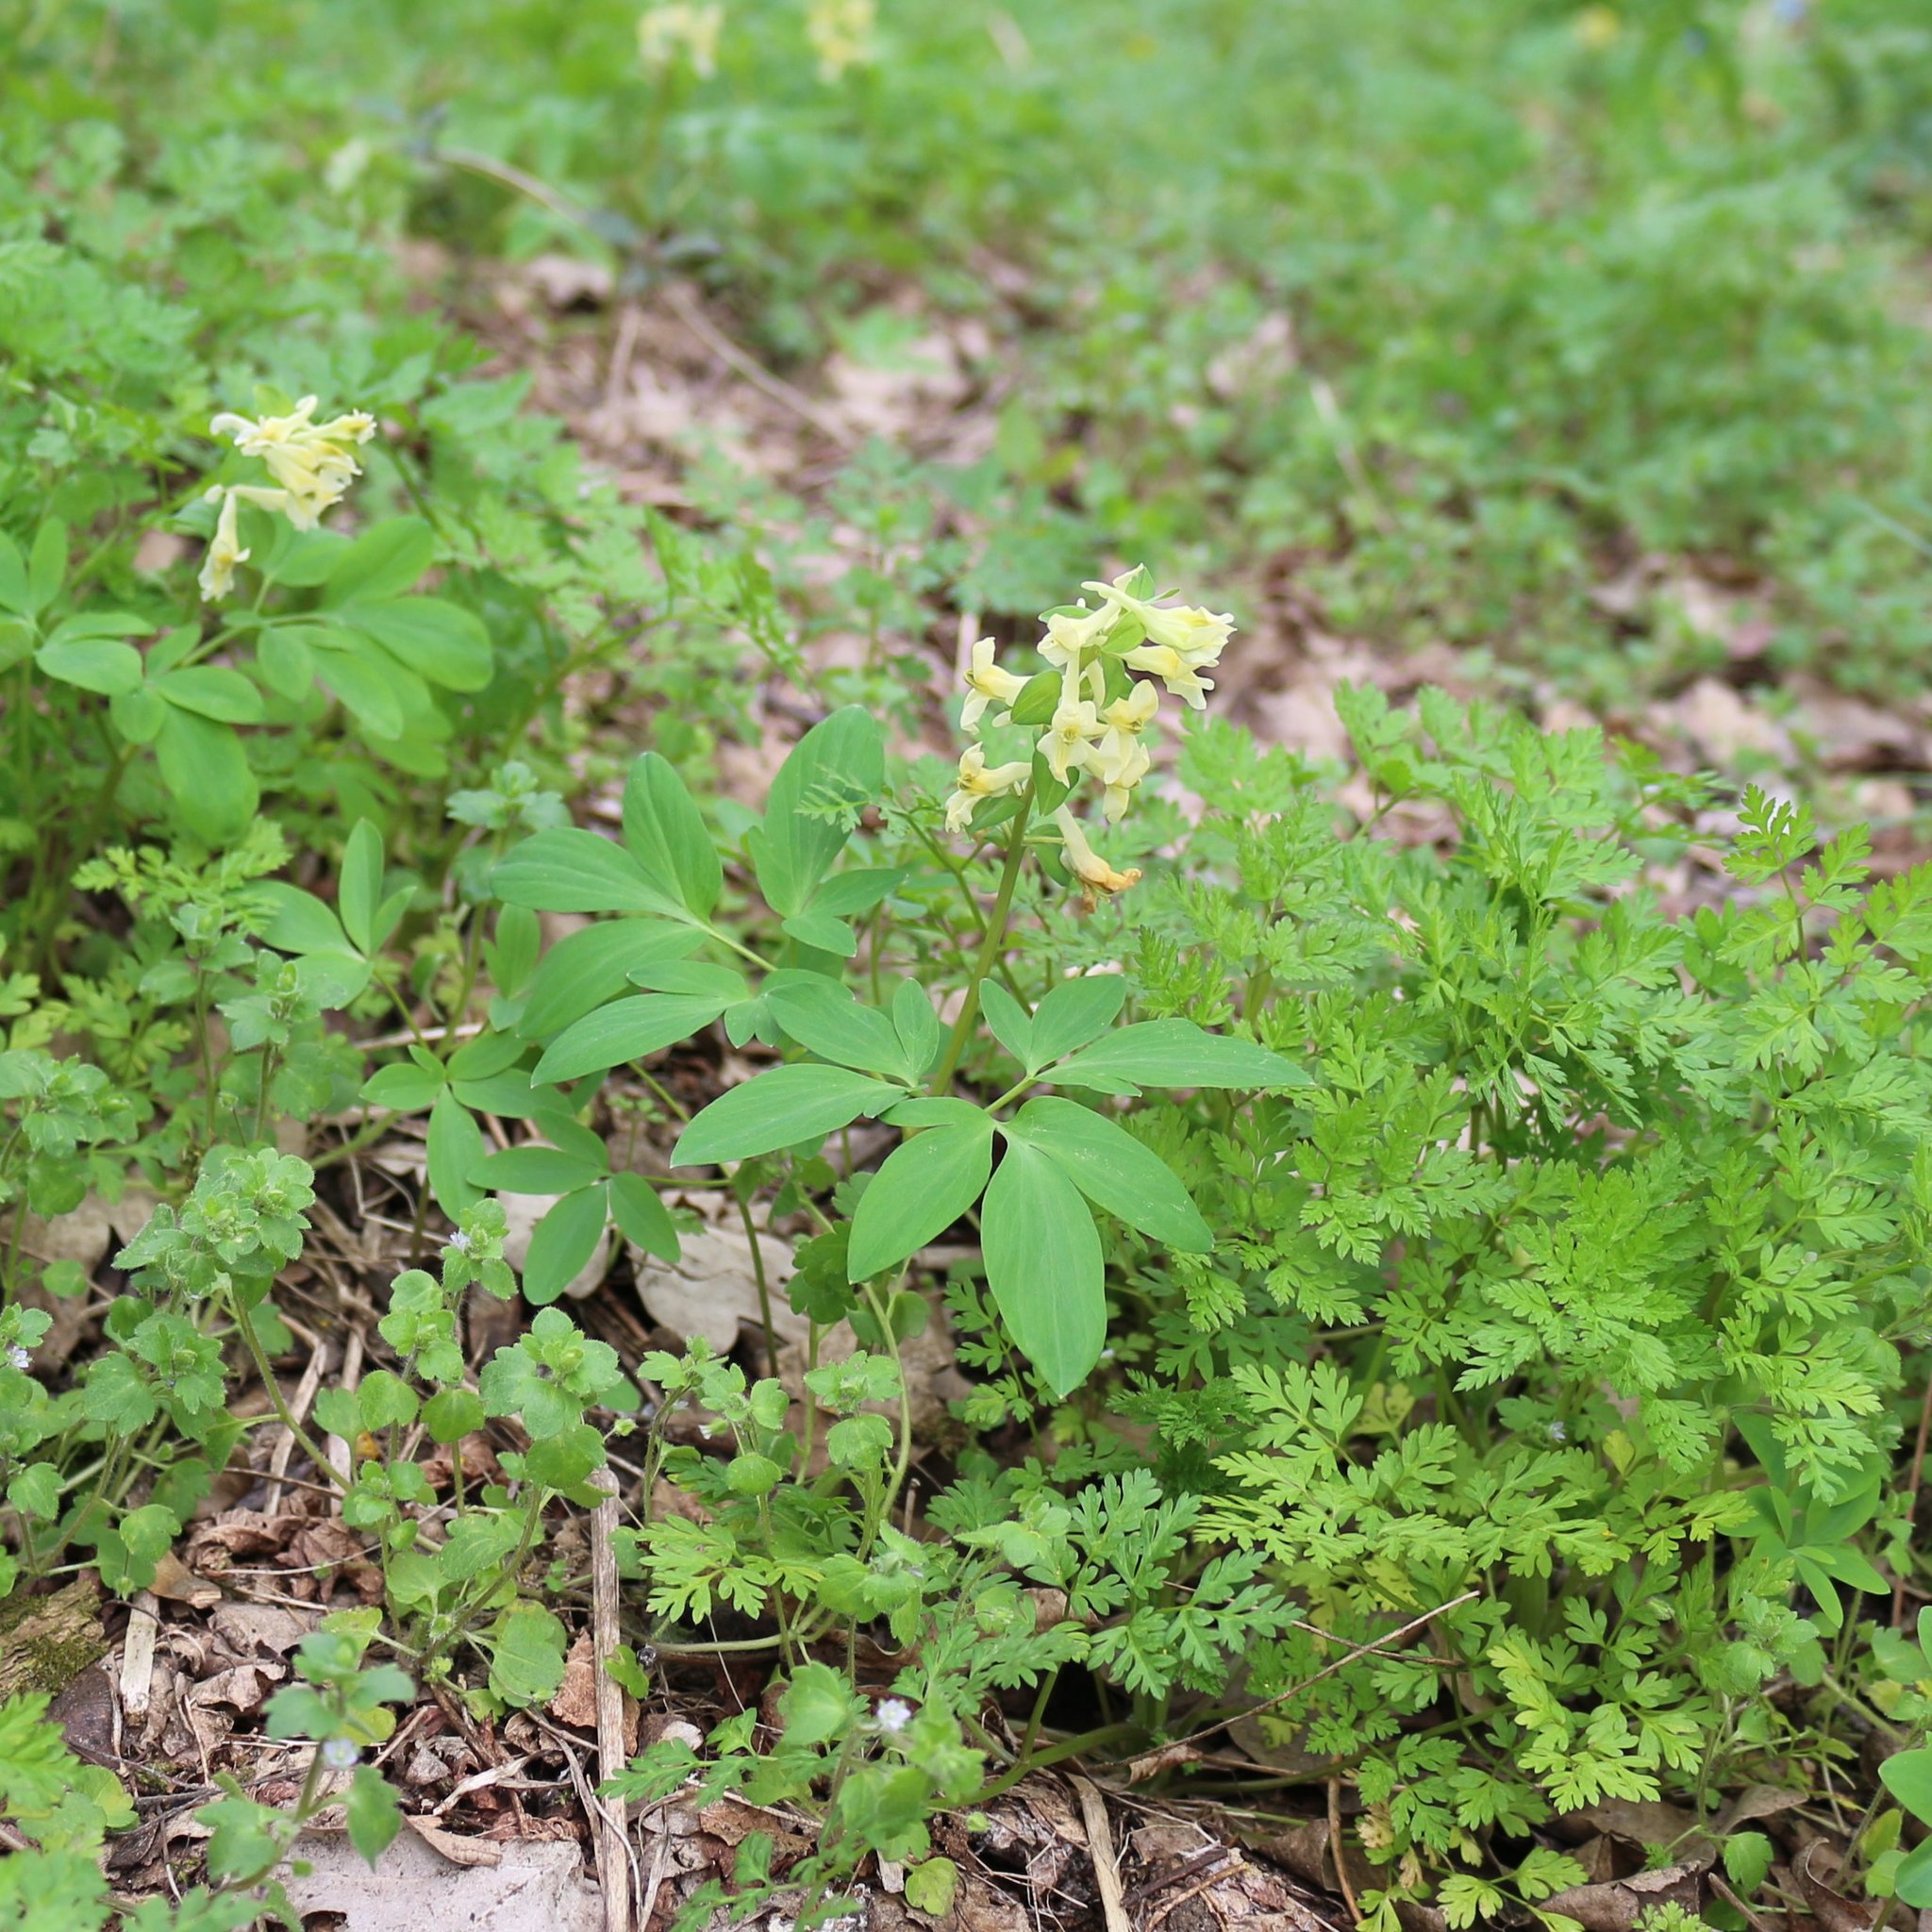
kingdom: Plantae
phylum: Tracheophyta
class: Magnoliopsida
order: Ranunculales
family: Papaveraceae
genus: Corydalis
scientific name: Corydalis cava
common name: Hollowroot
